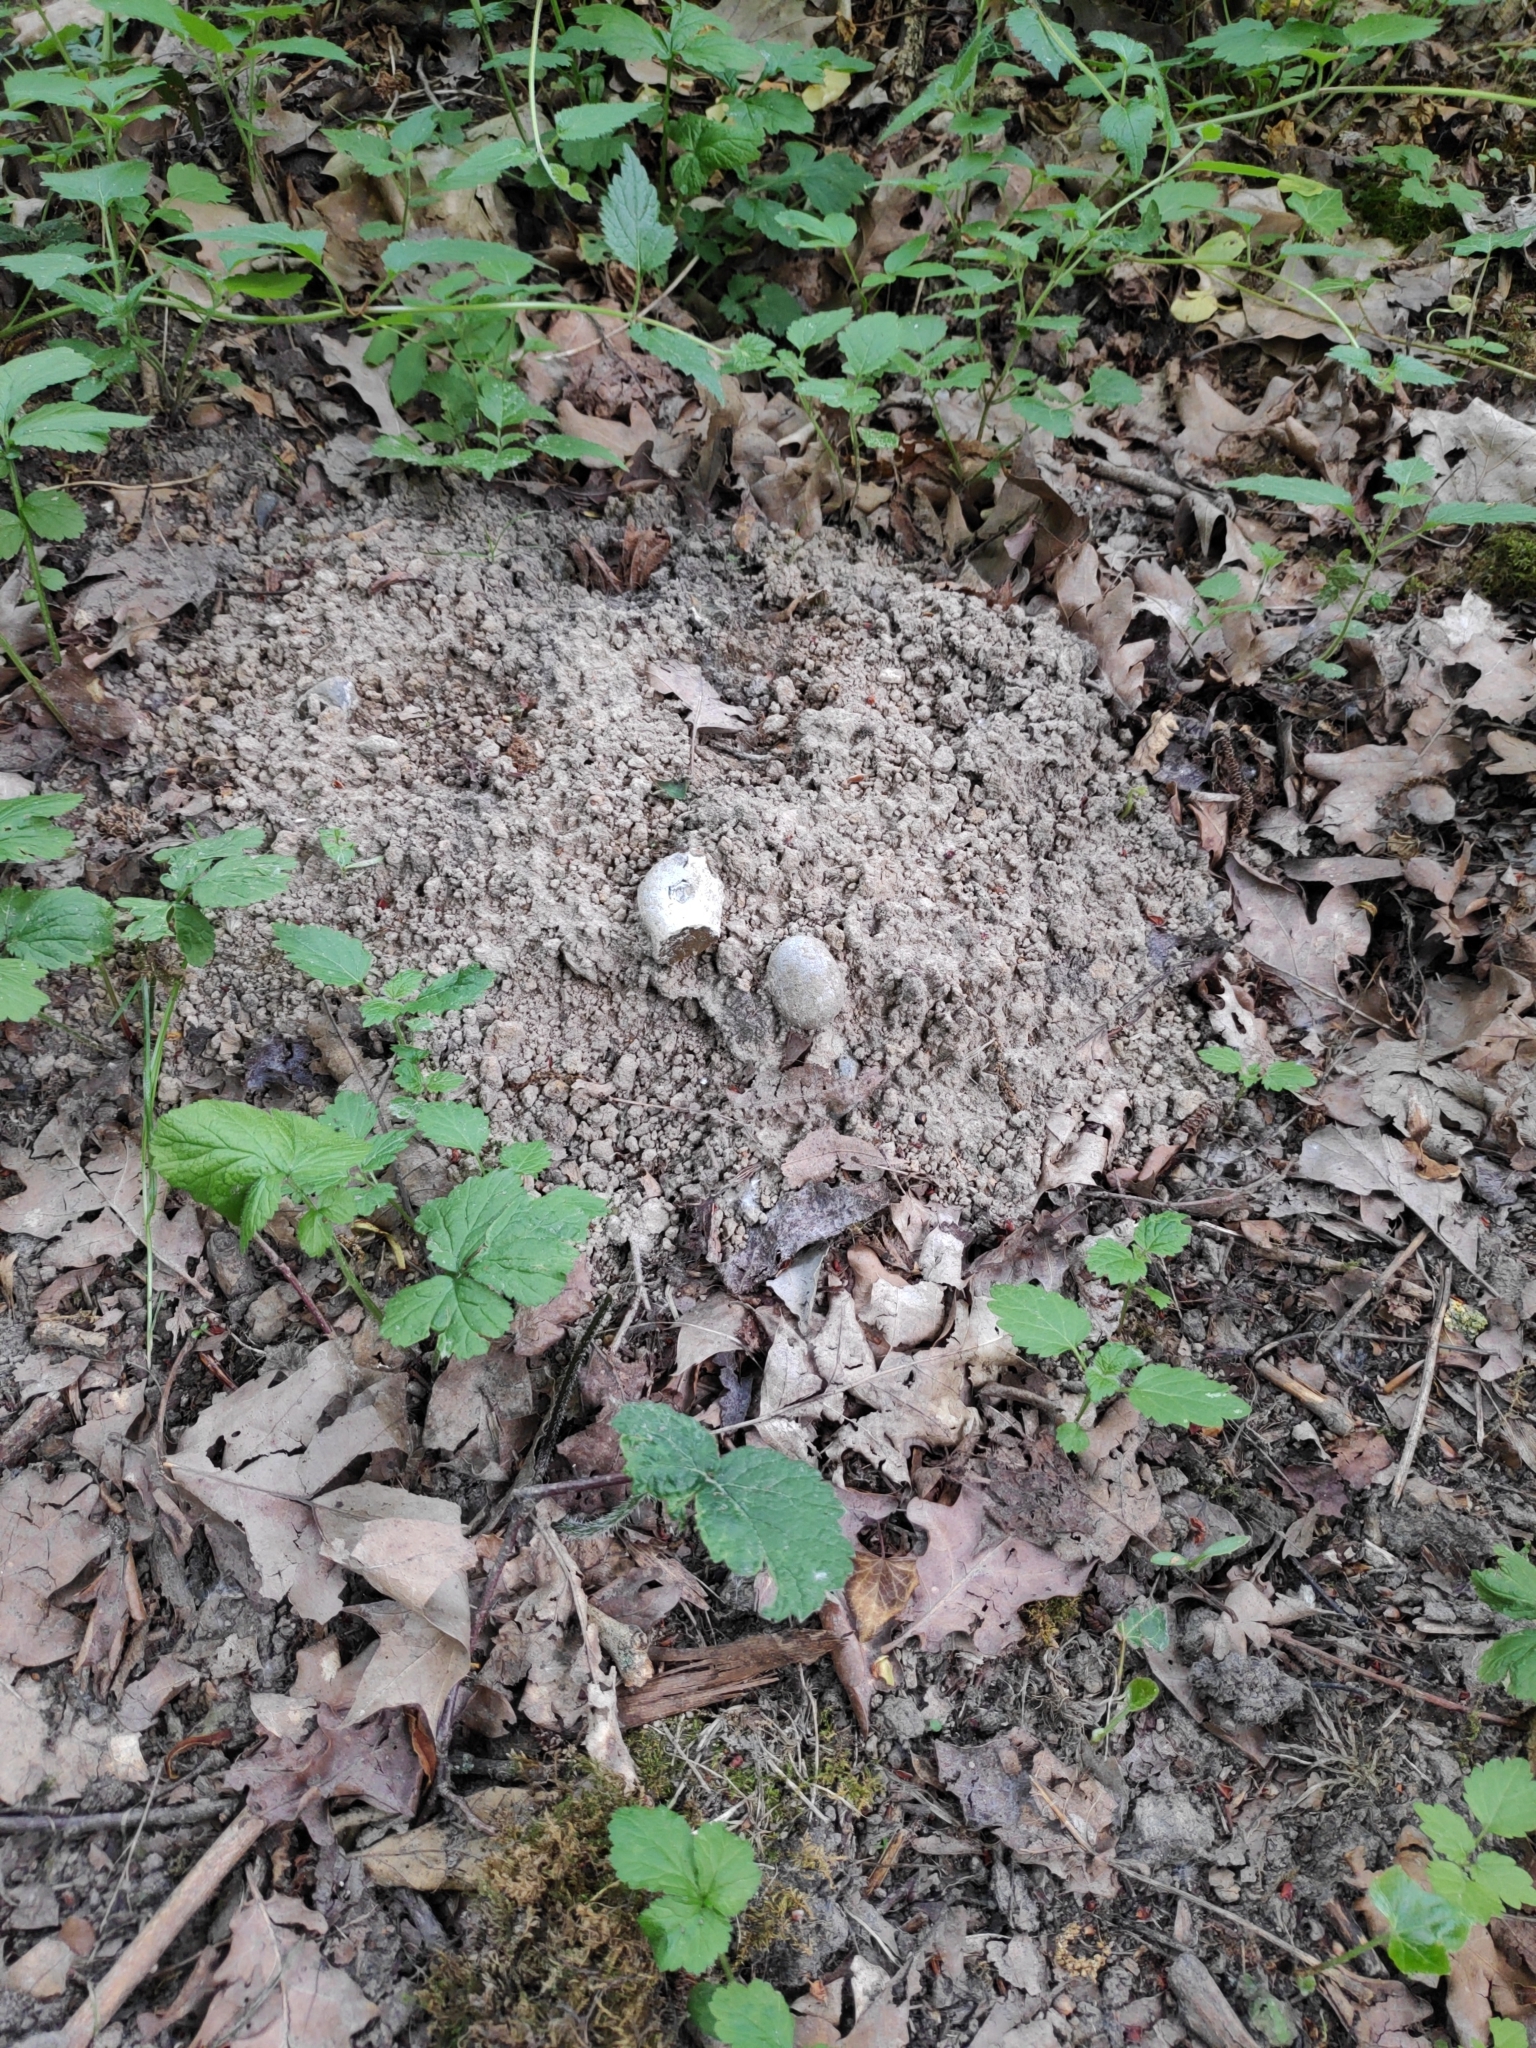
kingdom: Animalia
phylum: Chordata
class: Mammalia
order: Soricomorpha
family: Talpidae
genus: Talpa
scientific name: Talpa europaea
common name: European mole
